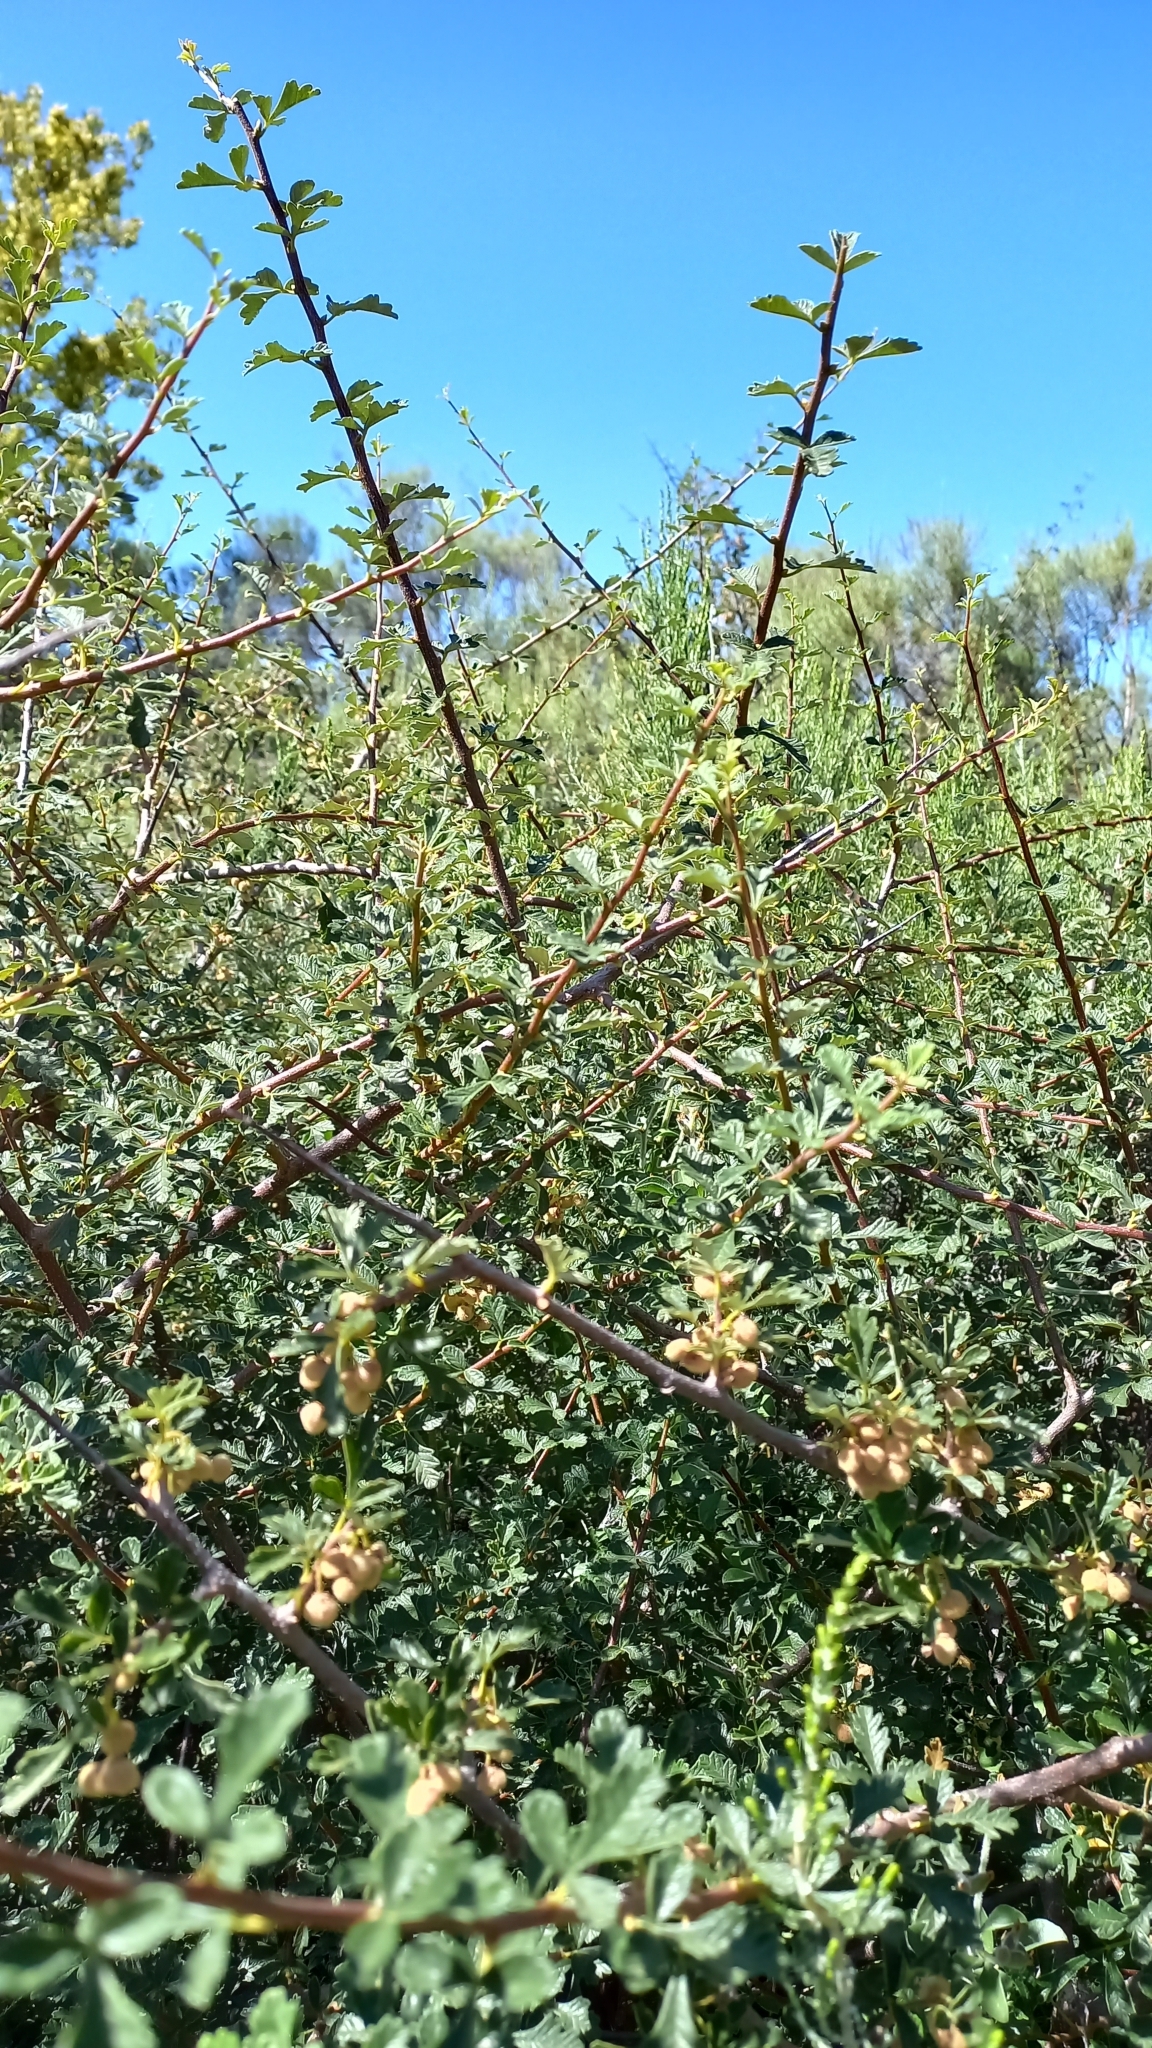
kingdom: Plantae
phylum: Tracheophyta
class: Magnoliopsida
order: Sapindales
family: Anacardiaceae
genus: Searsia
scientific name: Searsia incisa
